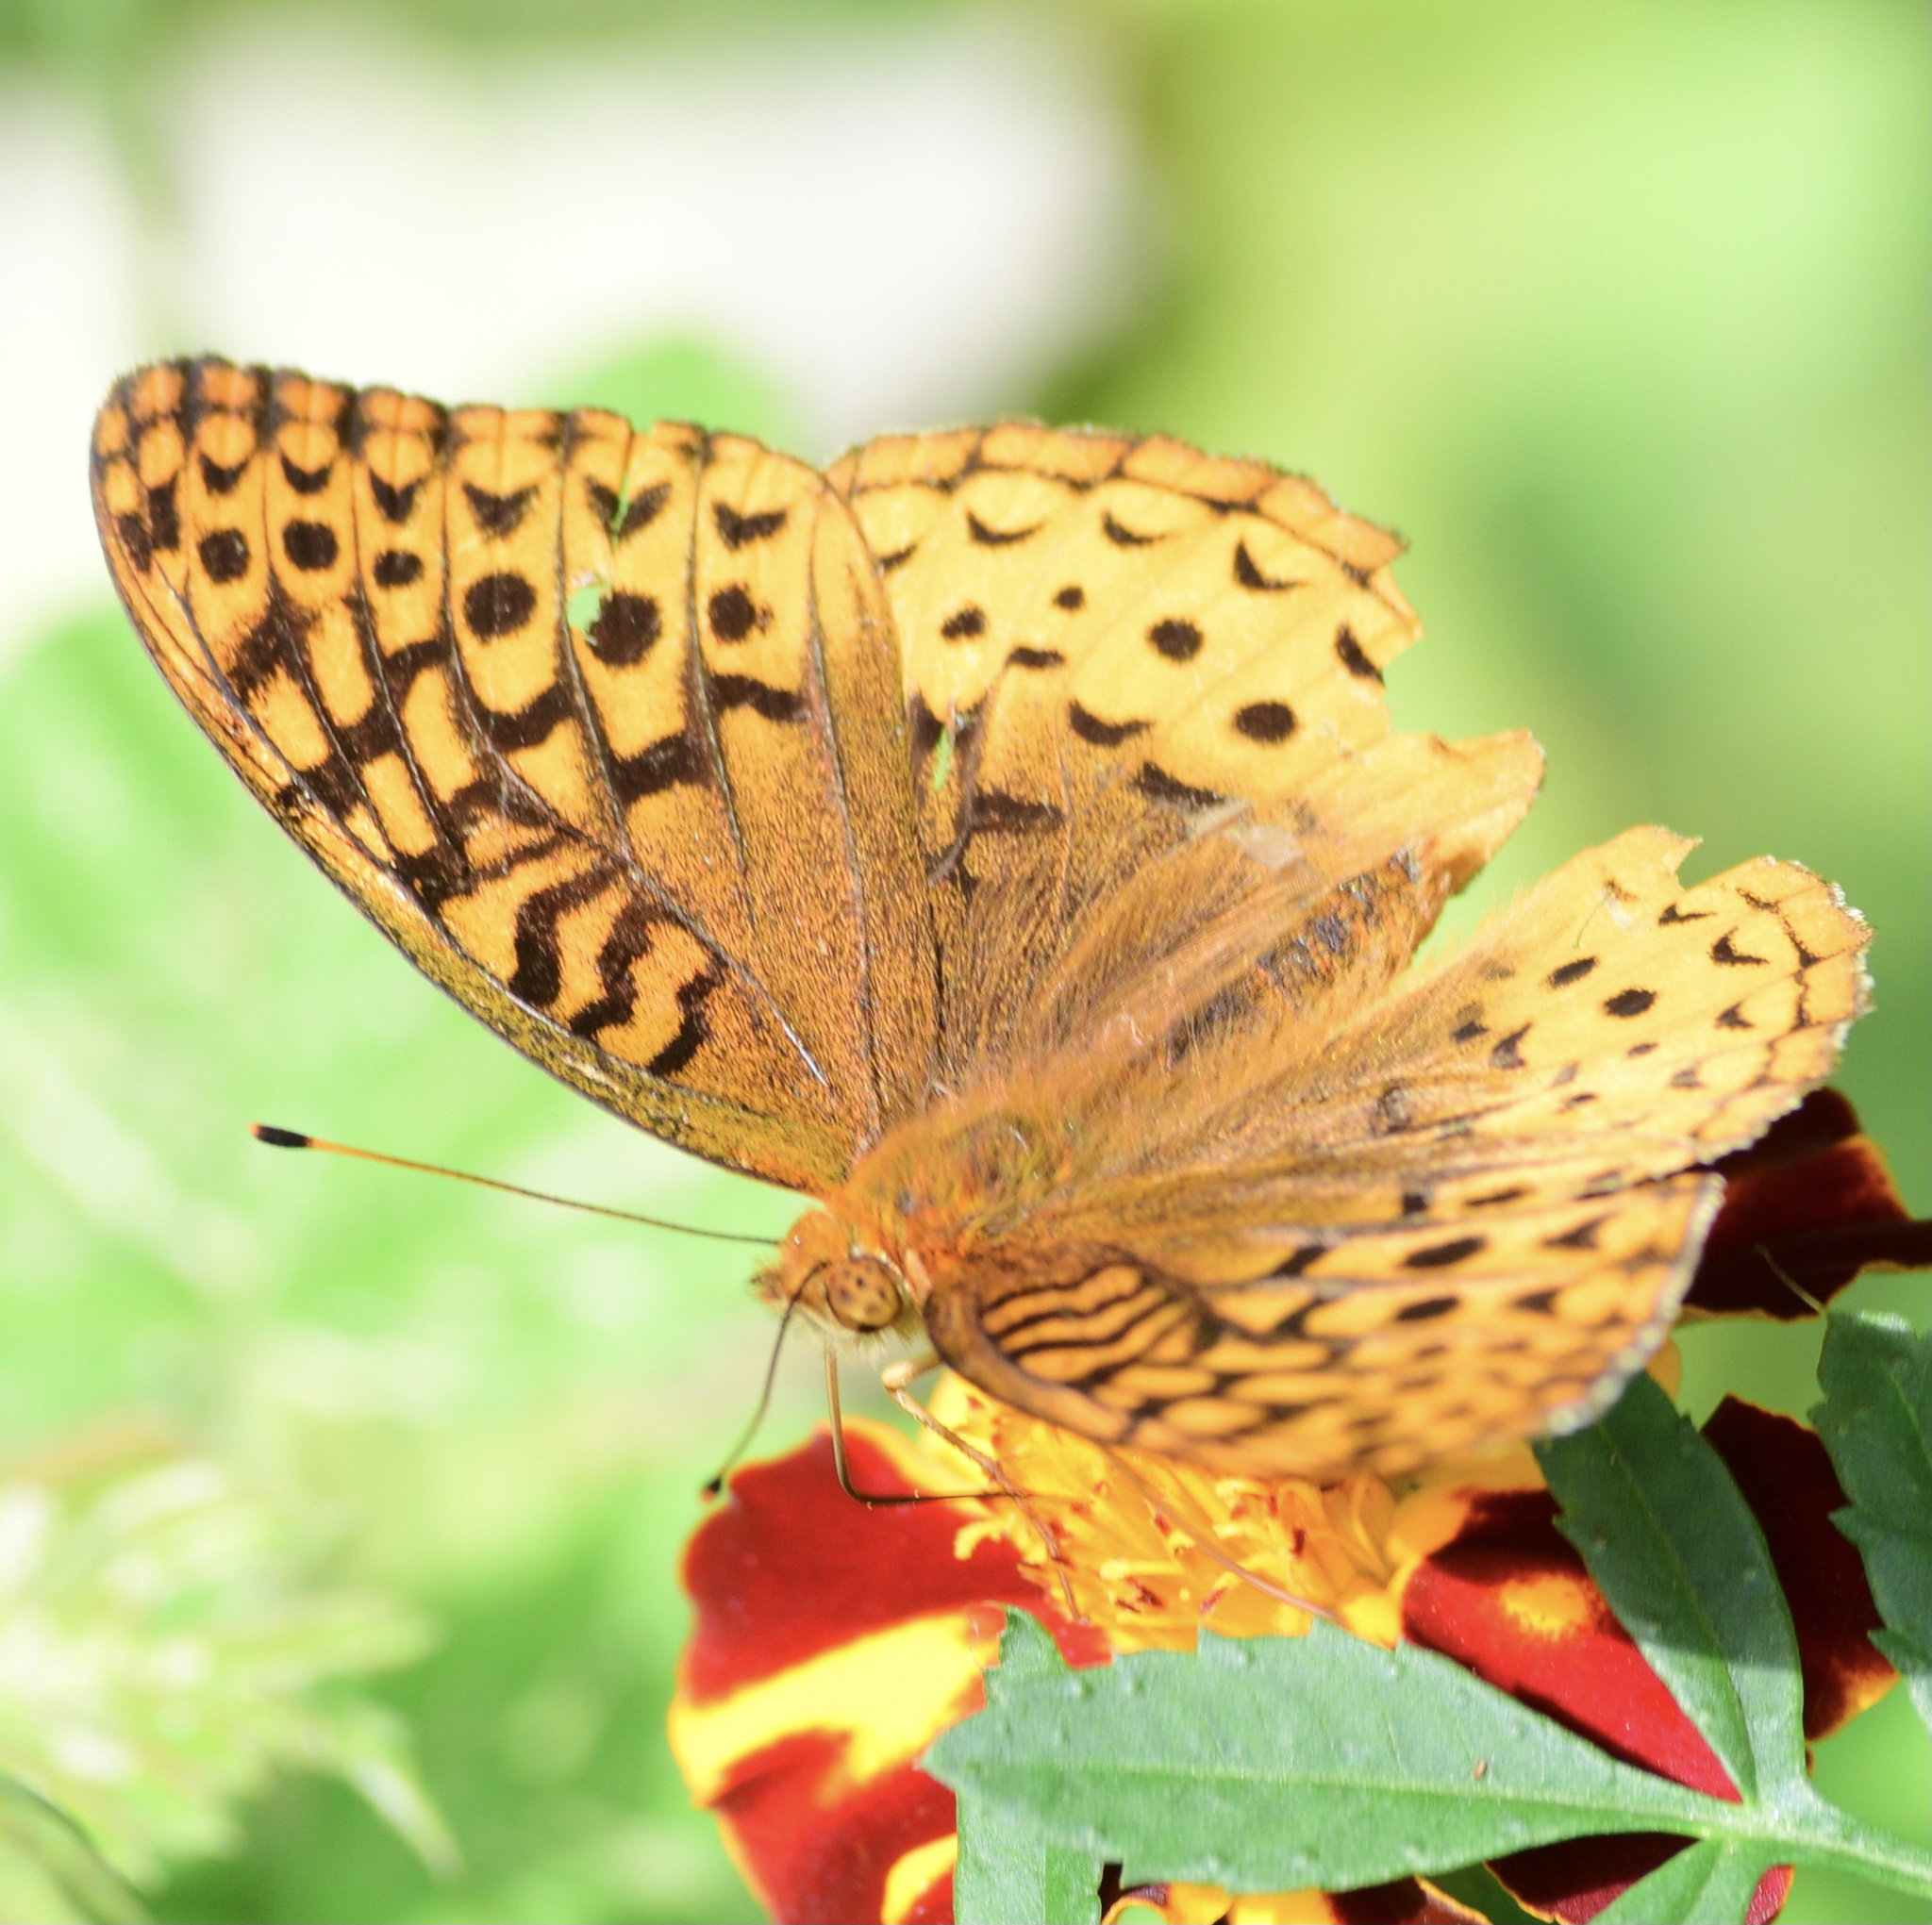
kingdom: Animalia
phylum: Arthropoda
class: Insecta
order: Lepidoptera
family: Nymphalidae
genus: Speyeria
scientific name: Speyeria cybele
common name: Great spangled fritillary
